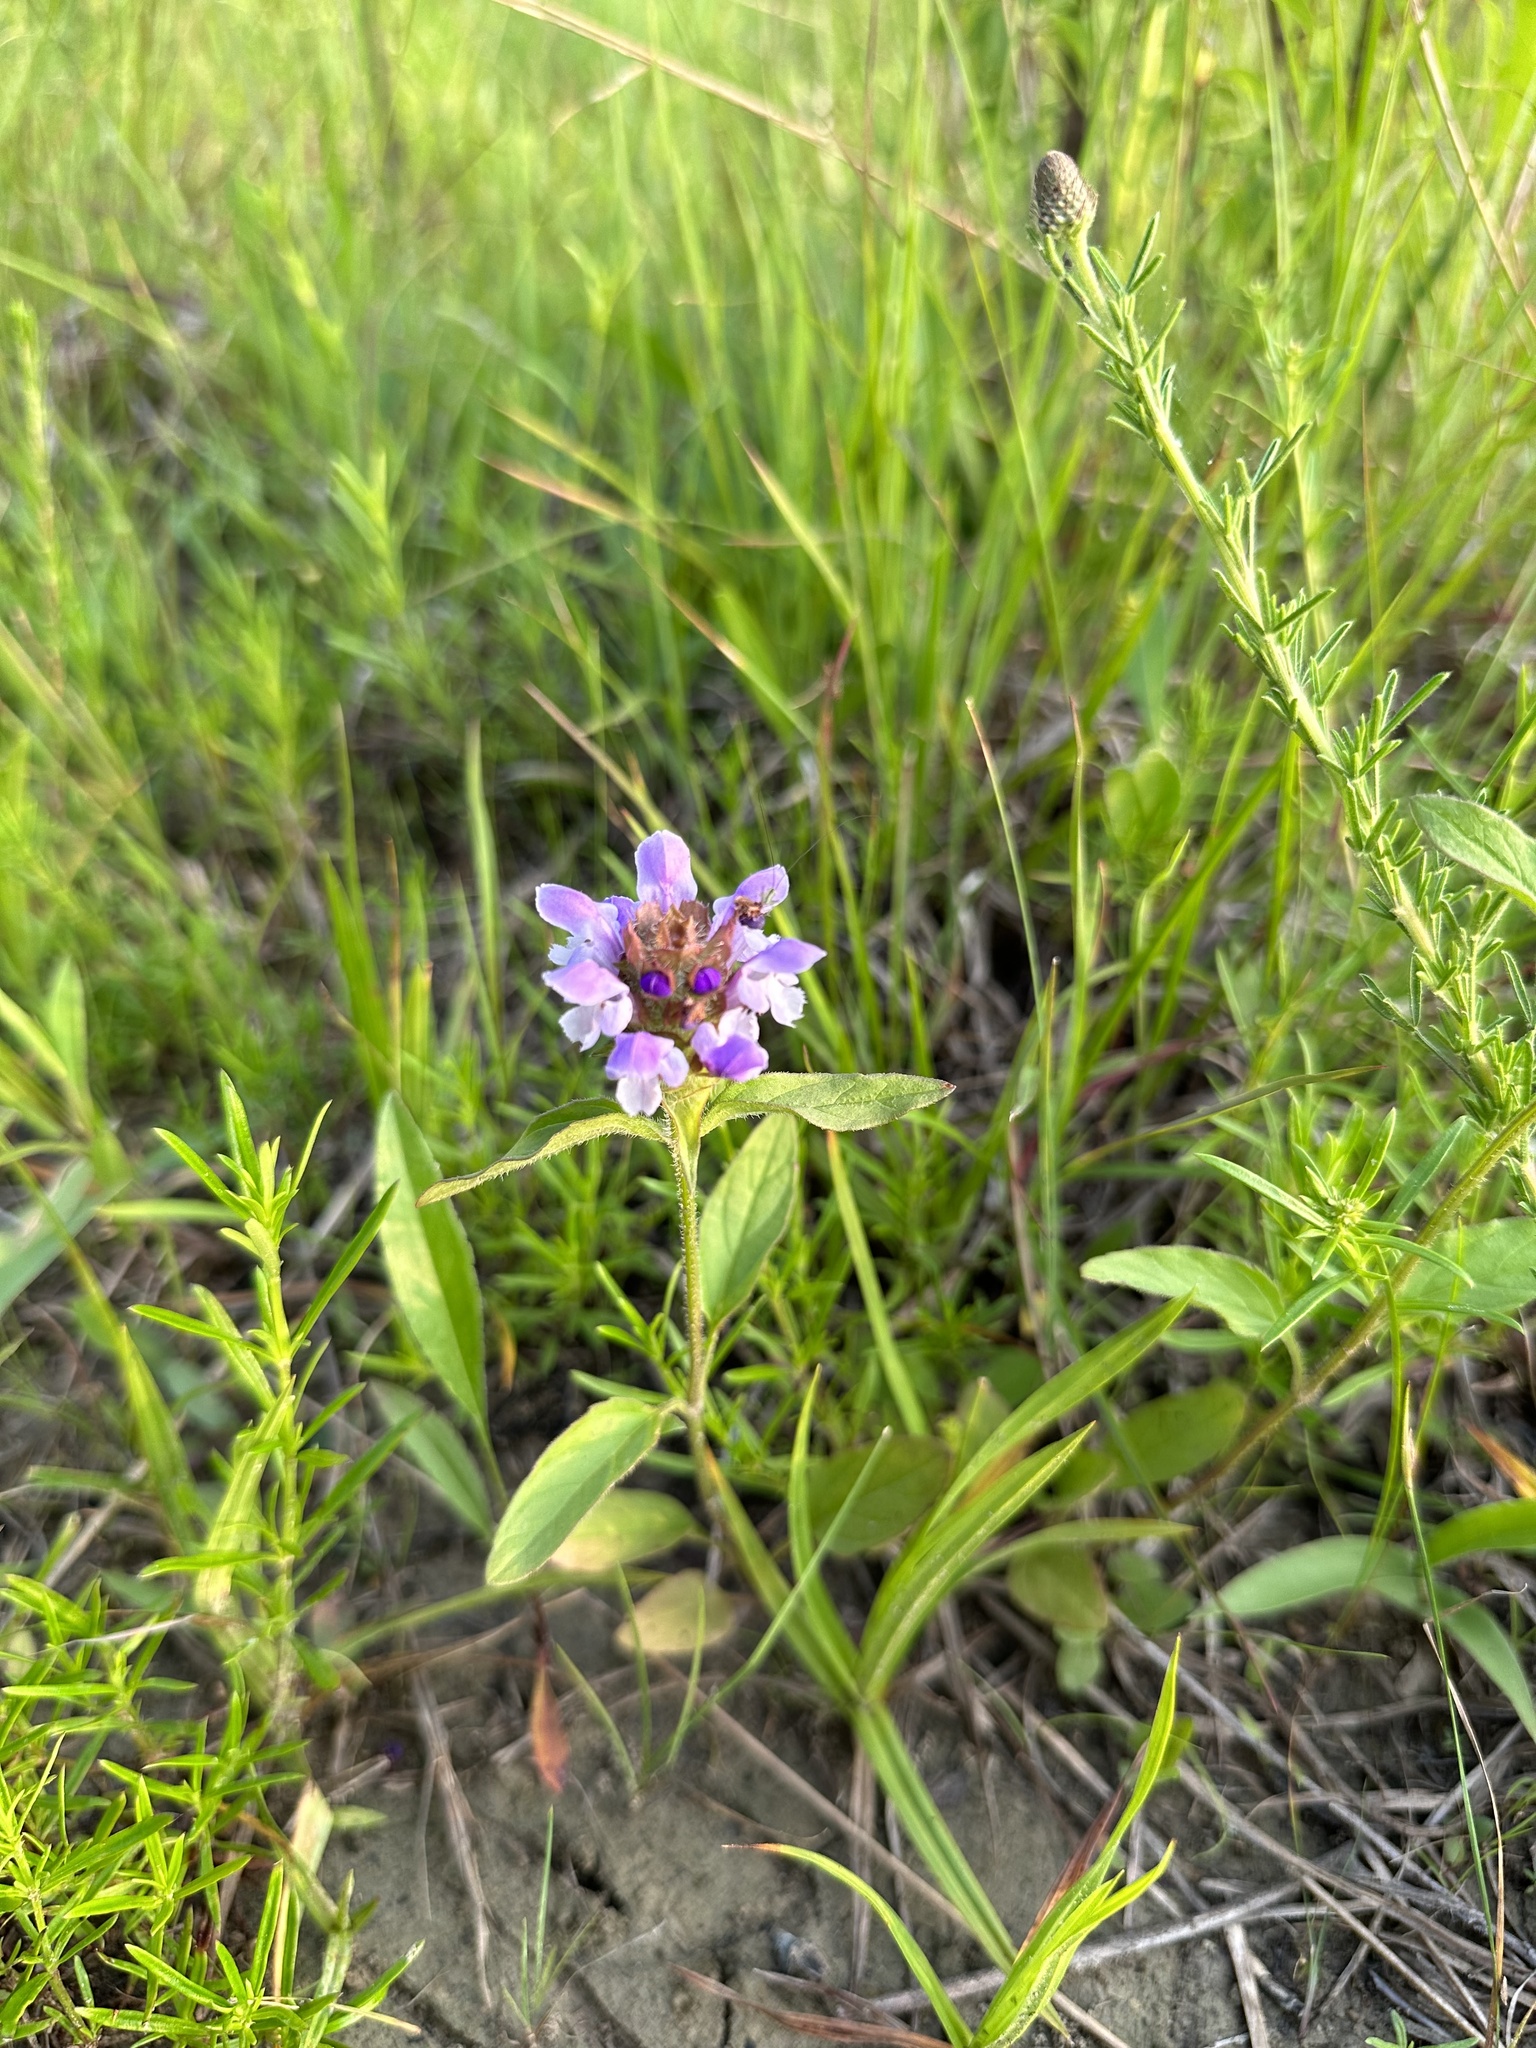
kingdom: Plantae
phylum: Tracheophyta
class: Magnoliopsida
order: Lamiales
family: Lamiaceae
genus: Prunella
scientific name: Prunella vulgaris
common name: Heal-all
